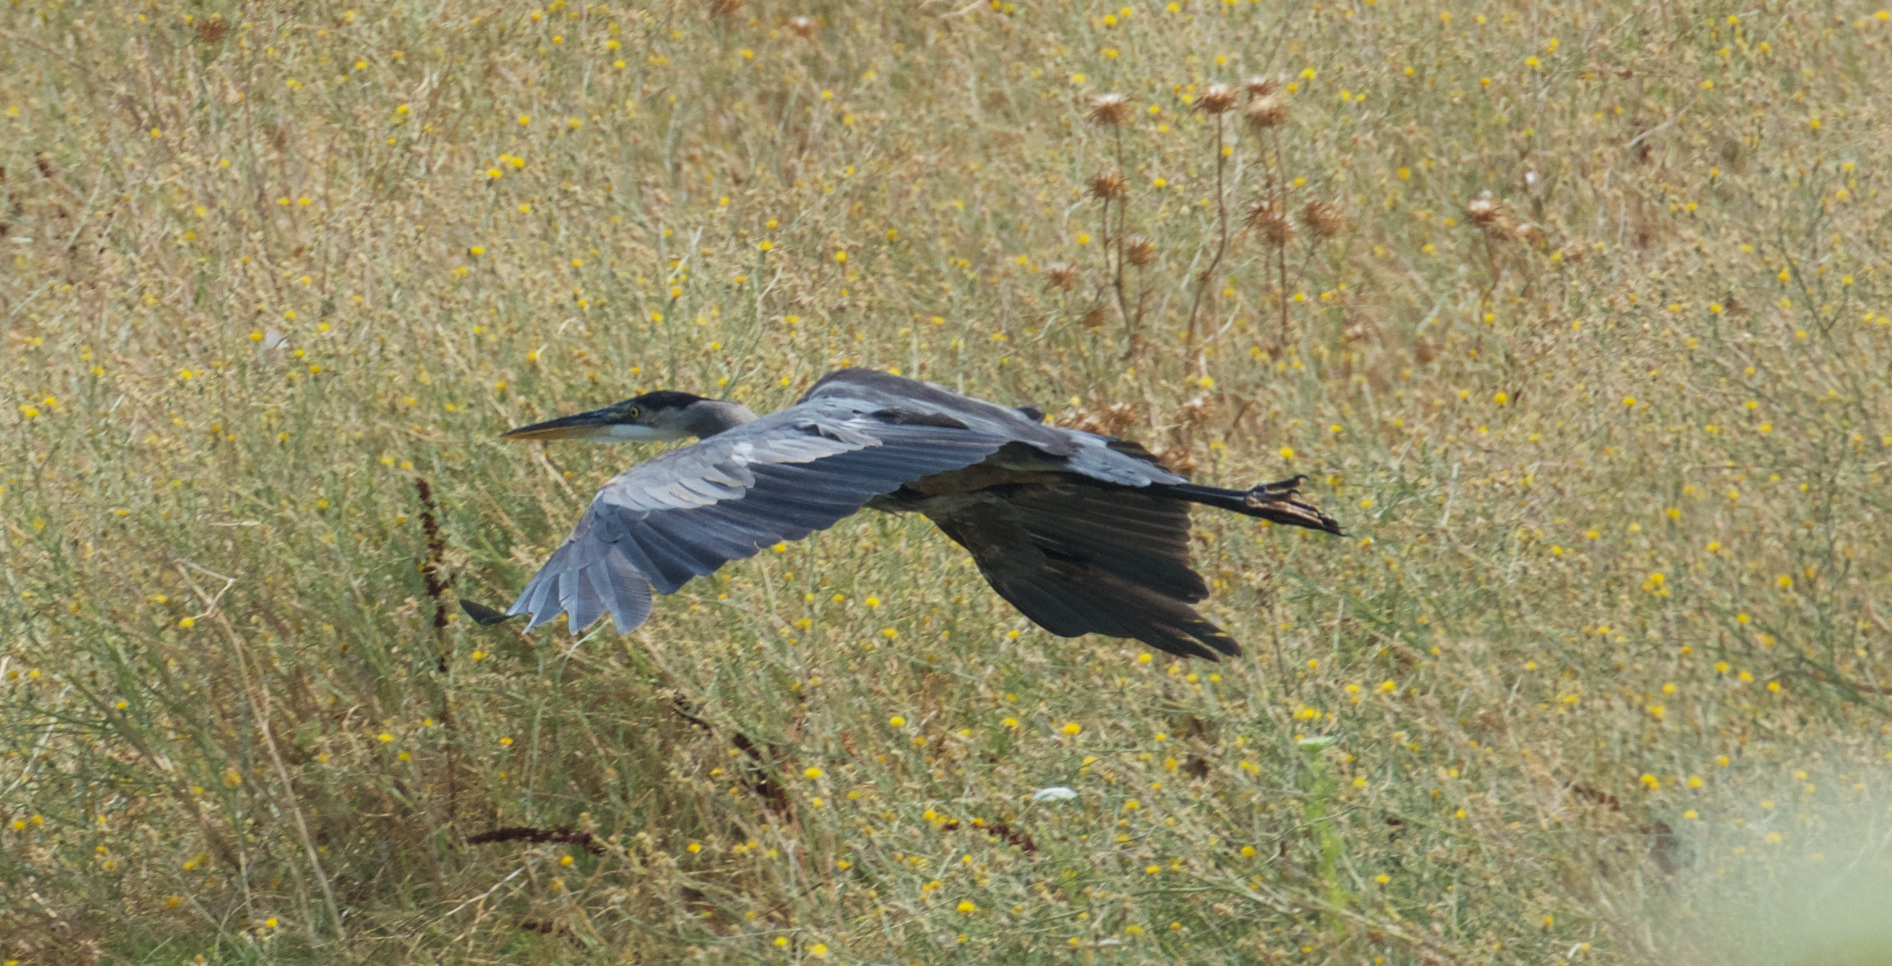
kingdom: Animalia
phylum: Chordata
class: Aves
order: Pelecaniformes
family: Ardeidae
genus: Ardea
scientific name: Ardea herodias
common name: Great blue heron
